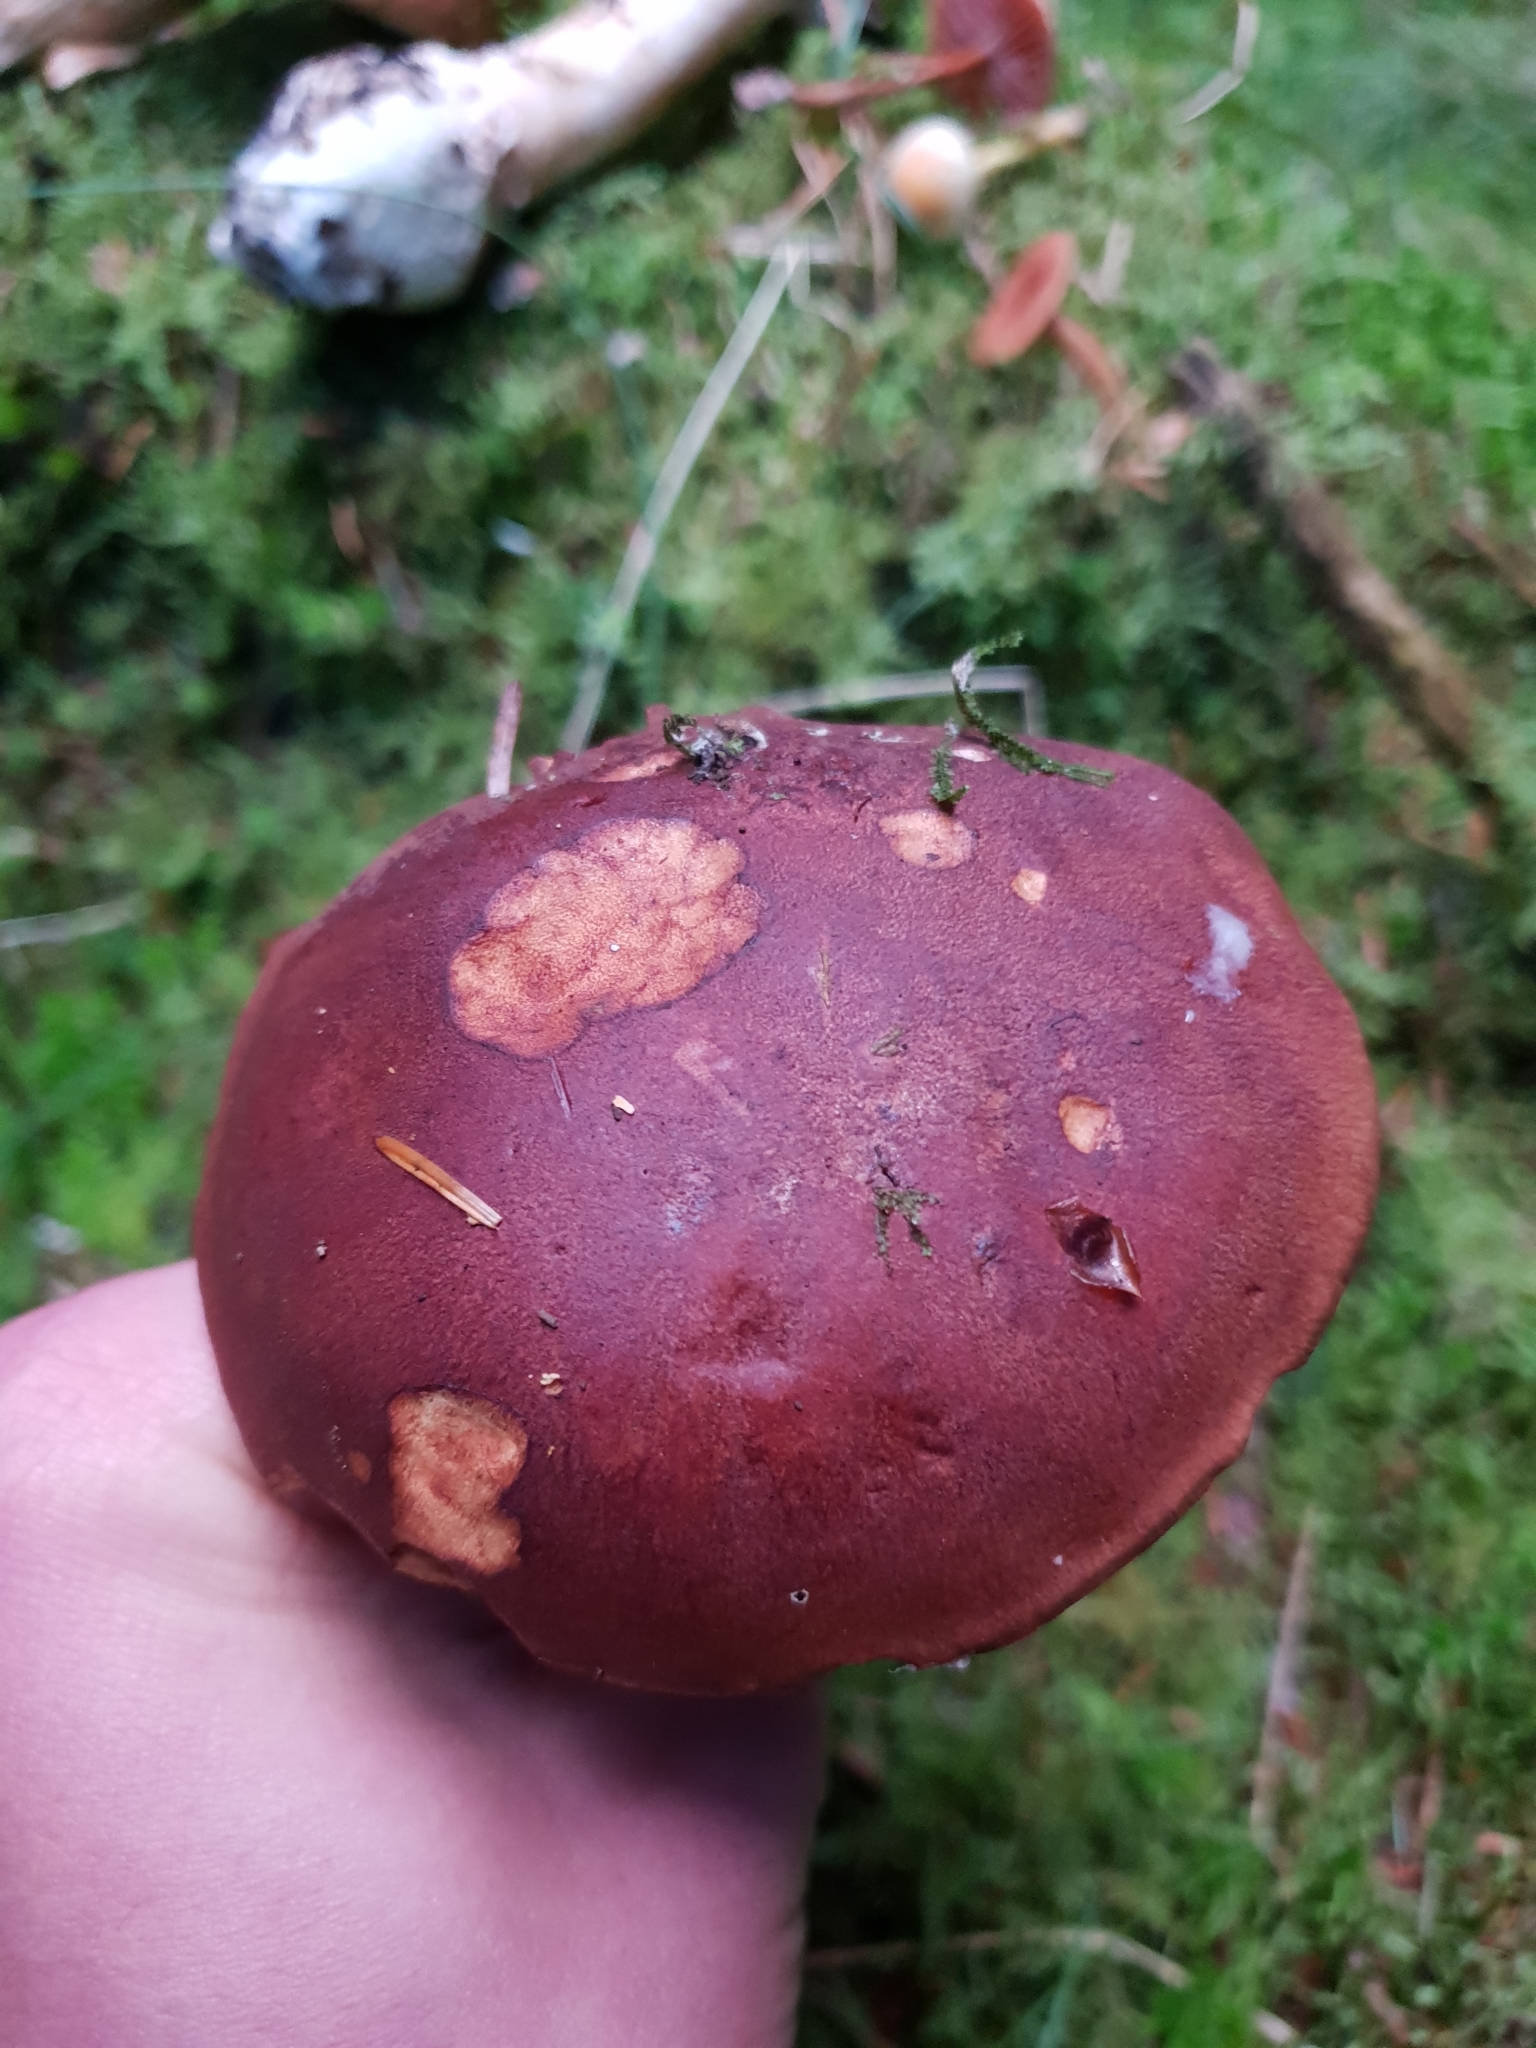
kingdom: Fungi
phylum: Basidiomycota
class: Agaricomycetes
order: Boletales
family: Boletaceae
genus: Imleria
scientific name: Imleria badia
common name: Bay bolete
